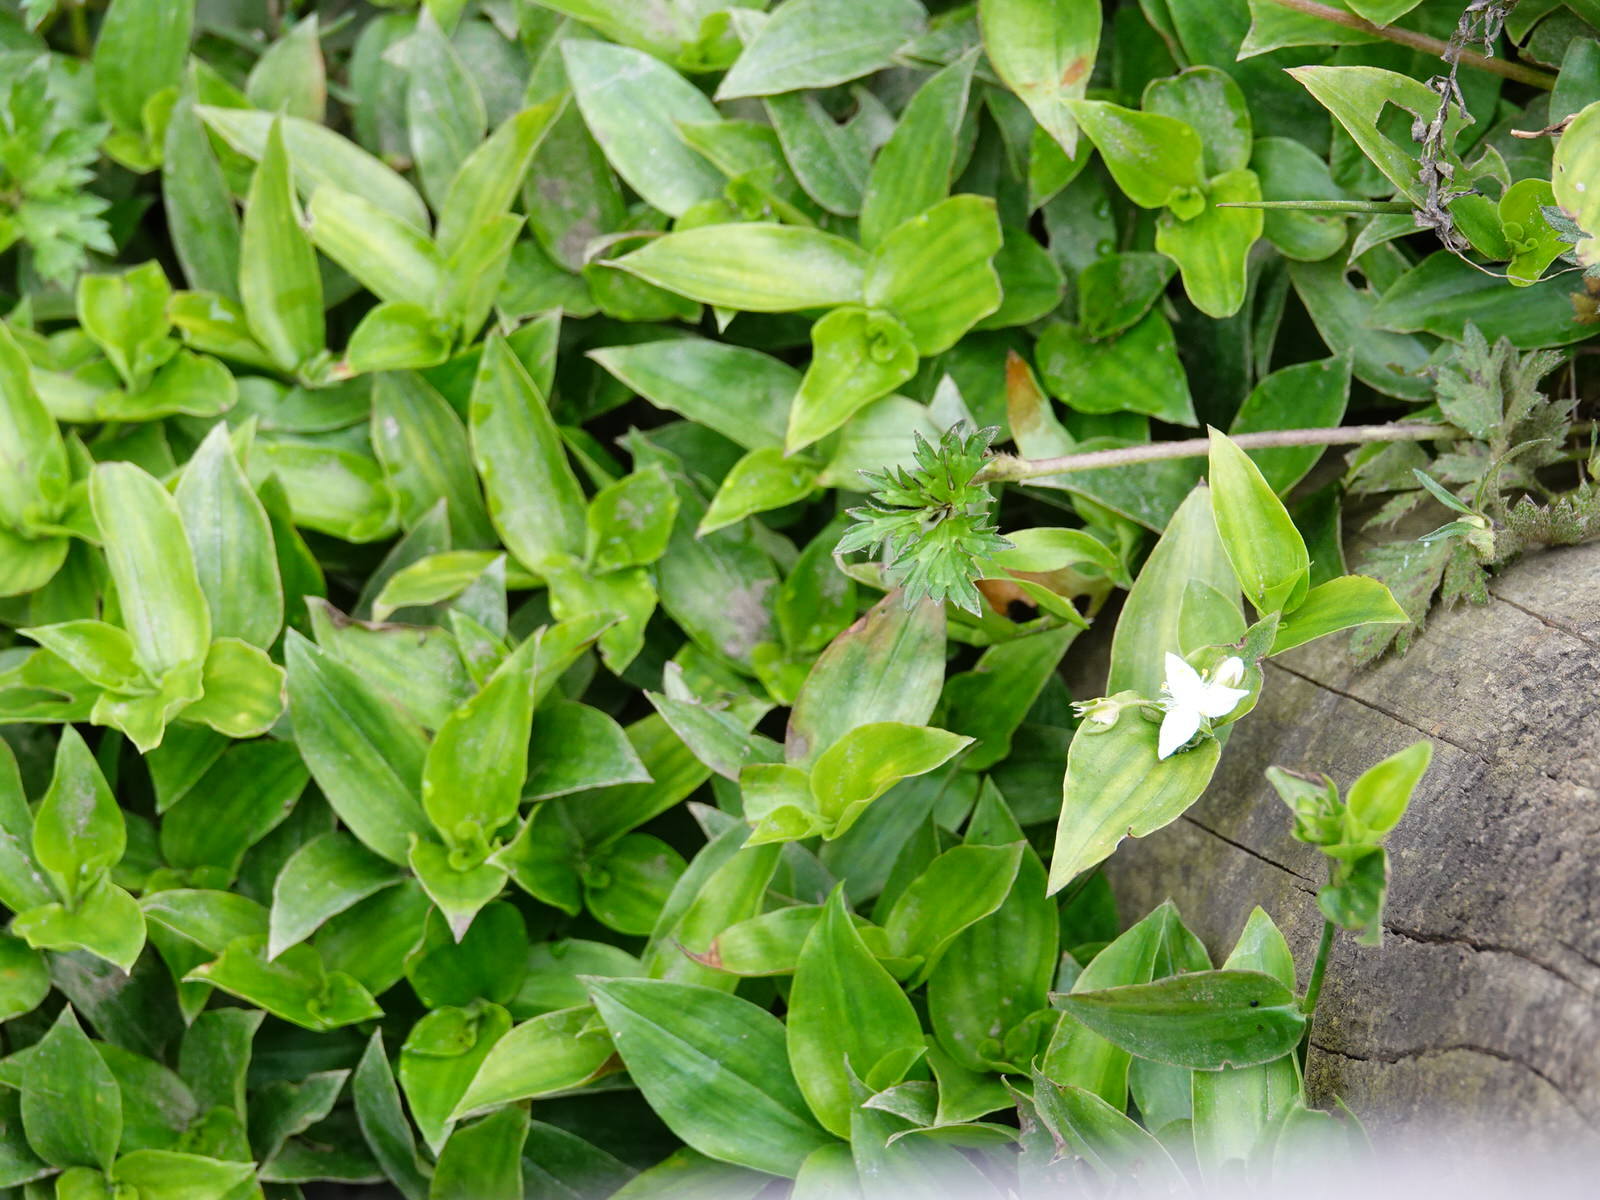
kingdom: Plantae
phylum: Tracheophyta
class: Liliopsida
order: Commelinales
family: Commelinaceae
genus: Tradescantia
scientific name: Tradescantia fluminensis
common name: Wandering-jew
